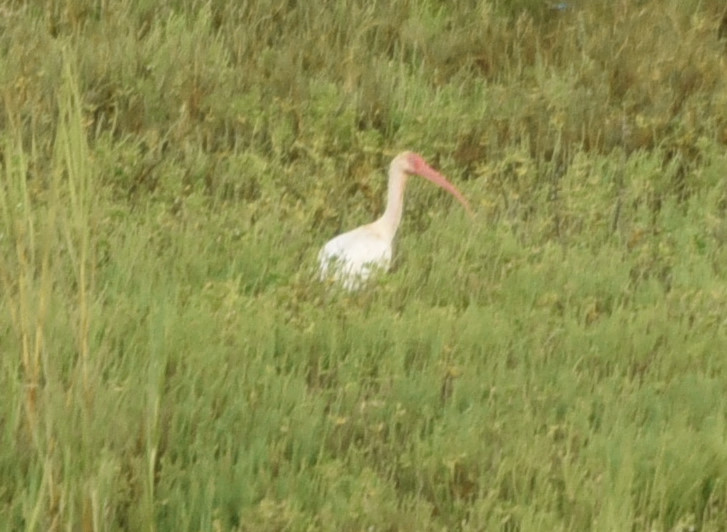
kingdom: Animalia
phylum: Chordata
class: Aves
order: Pelecaniformes
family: Threskiornithidae
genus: Eudocimus
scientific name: Eudocimus albus
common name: White ibis
